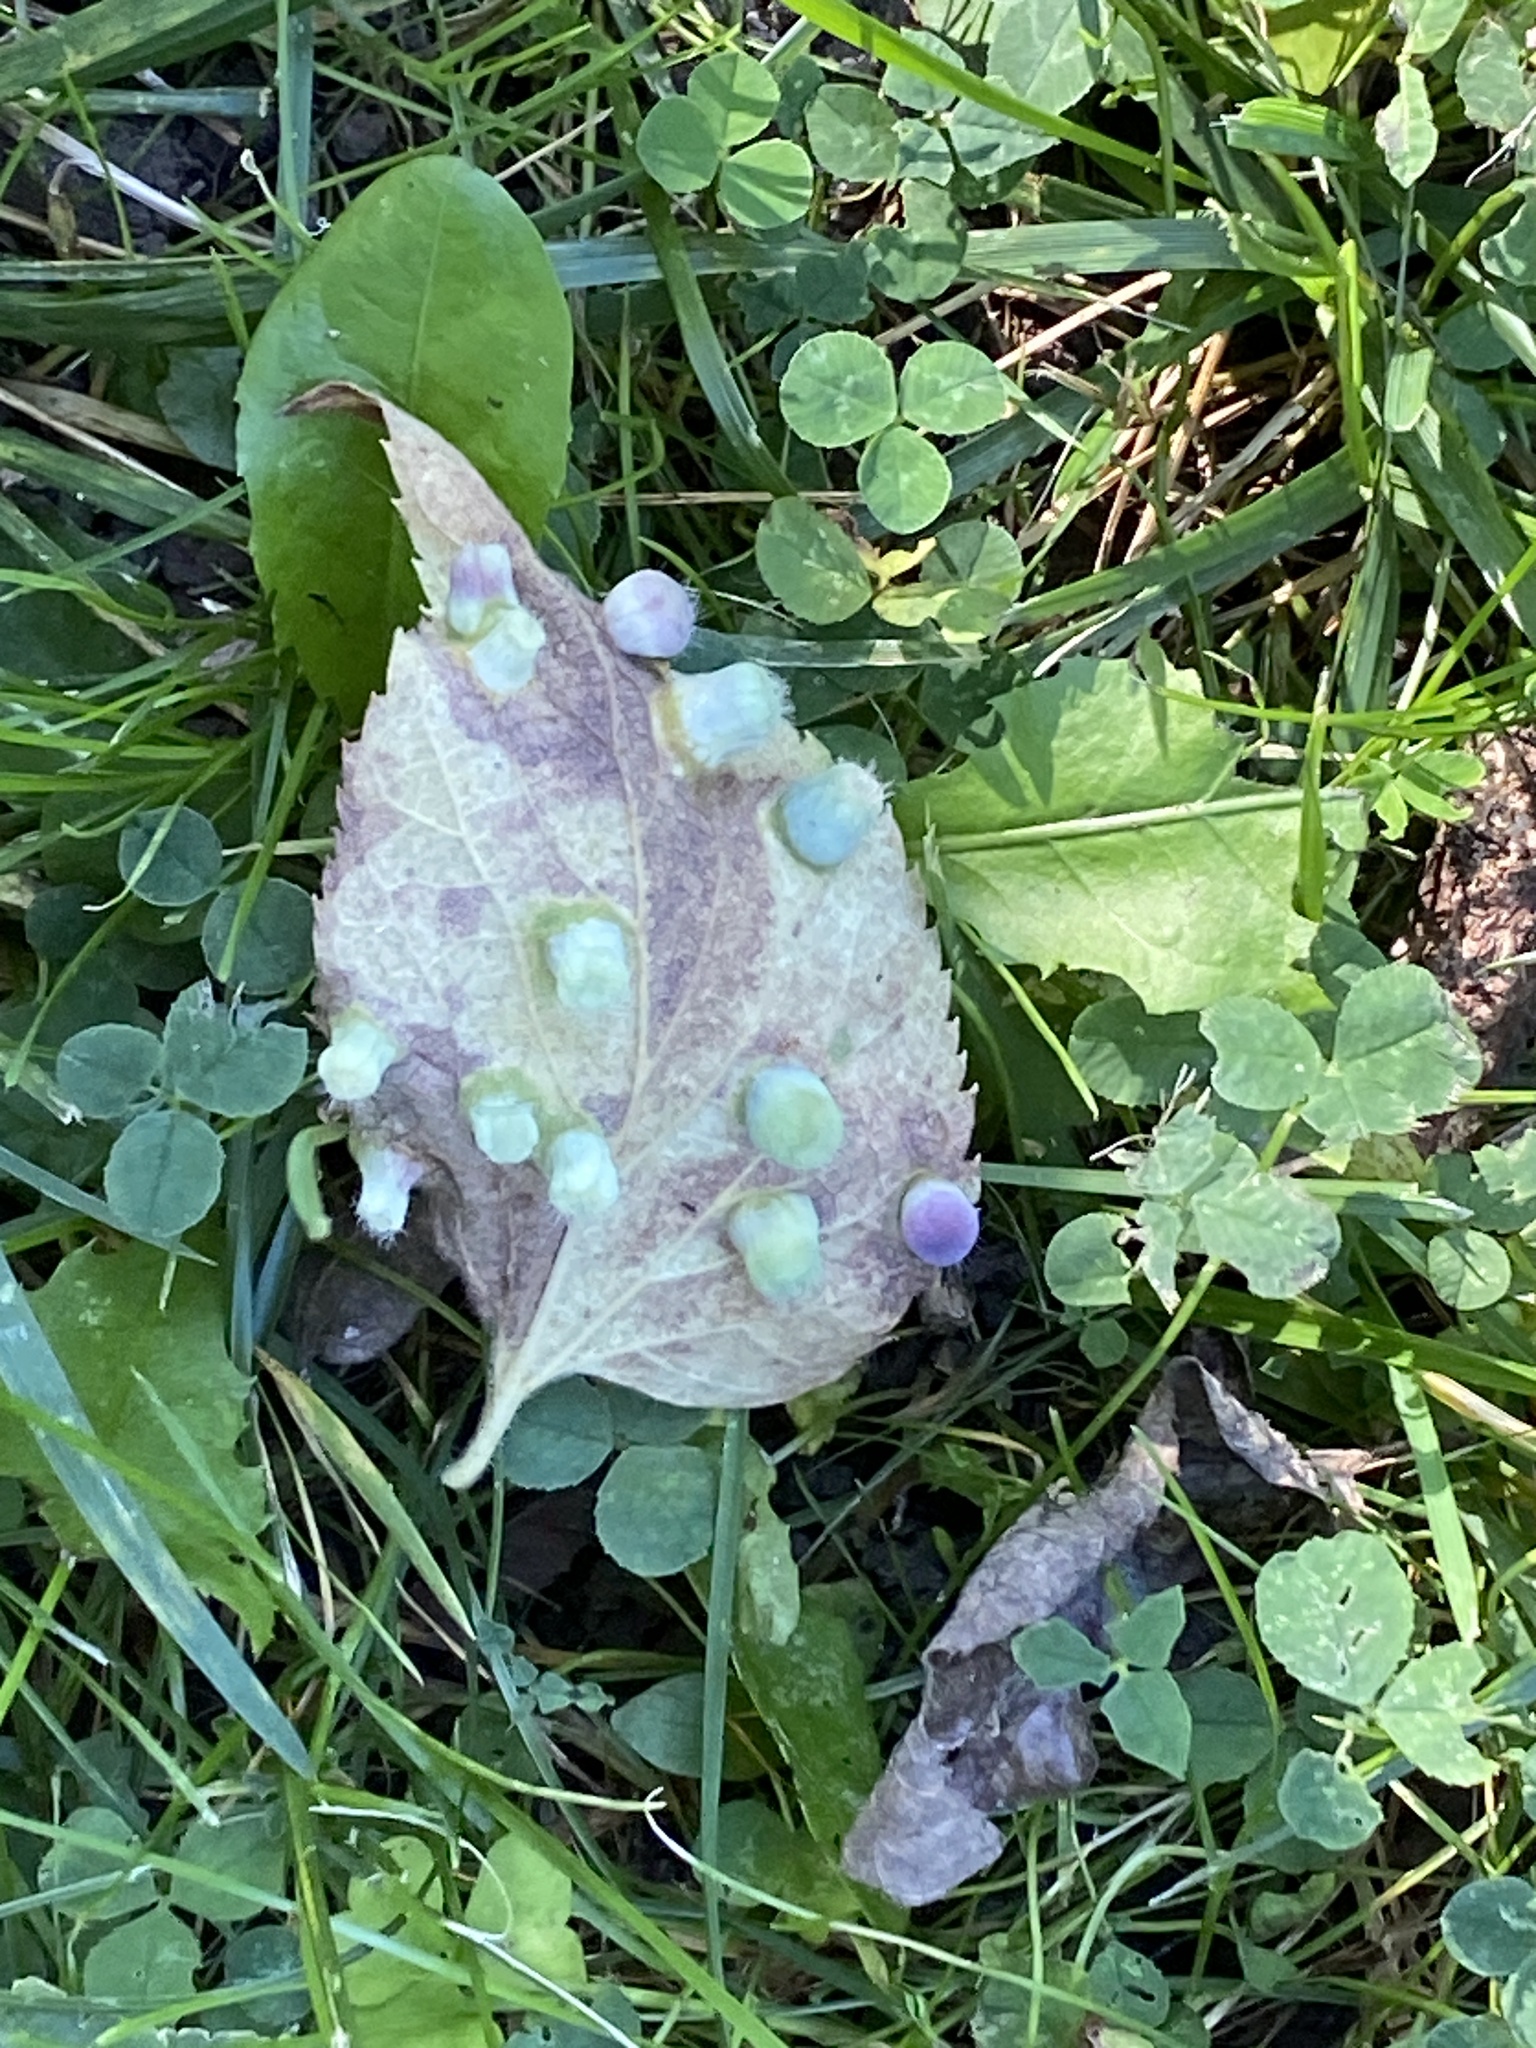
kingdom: Animalia
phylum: Arthropoda
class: Insecta
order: Hemiptera
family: Aphalaridae
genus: Pachypsylla
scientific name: Pachypsylla celtidismamma
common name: Hackberry nipplegall psyllid
